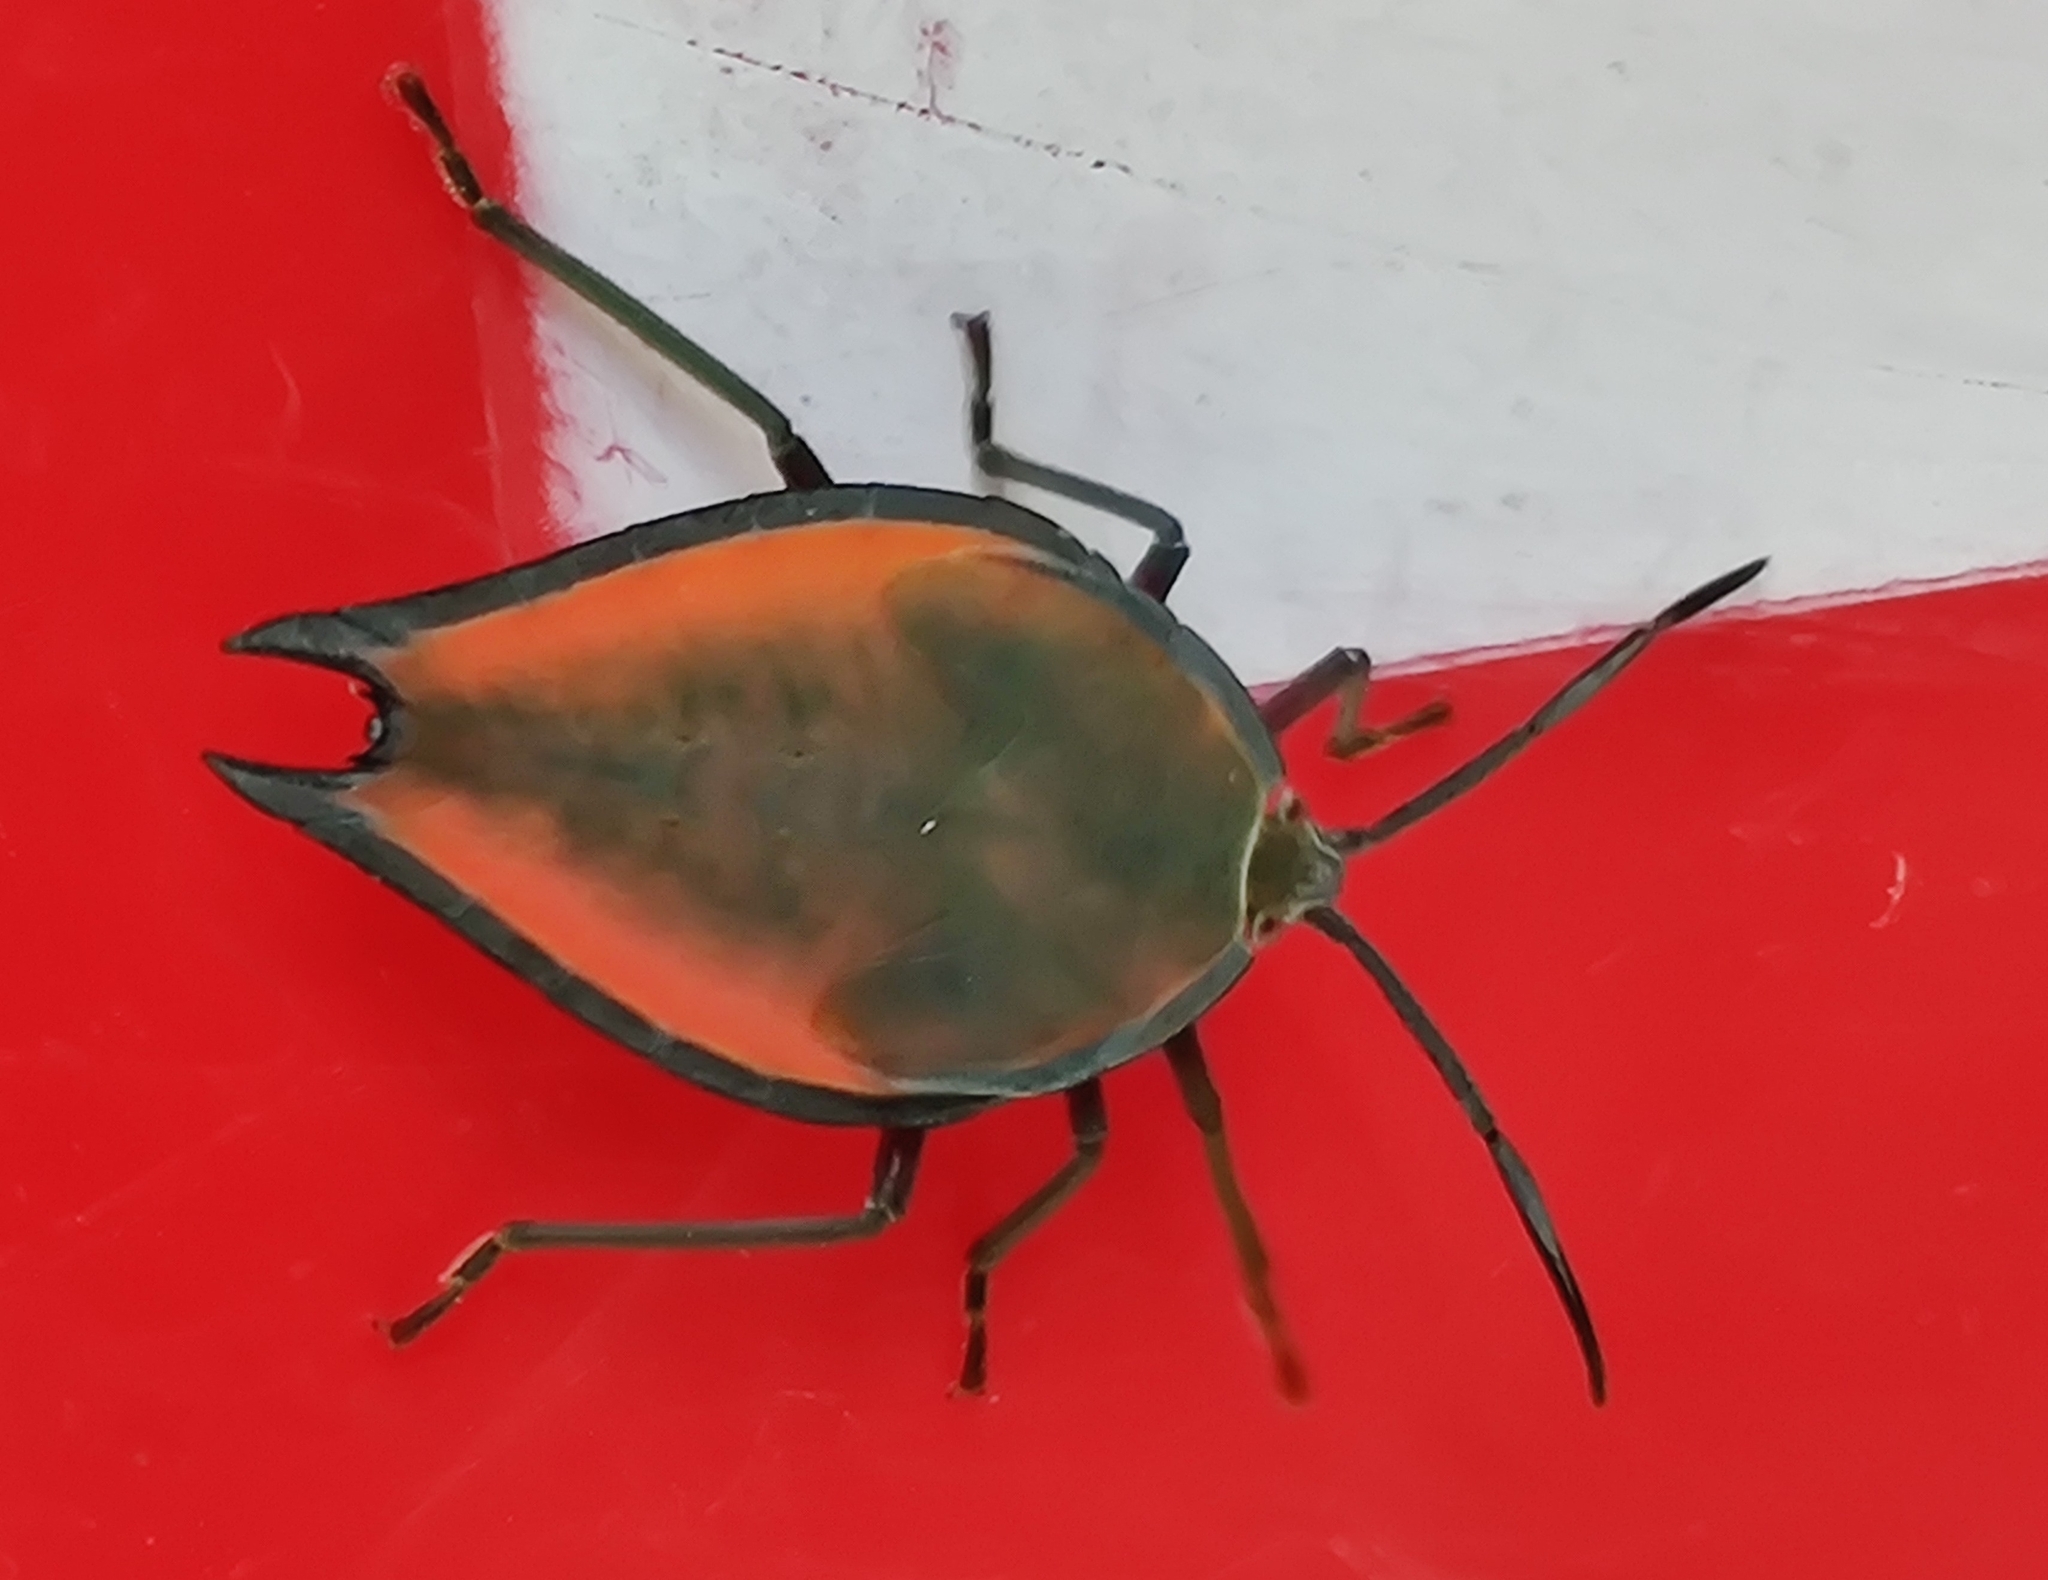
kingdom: Animalia
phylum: Arthropoda
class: Insecta
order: Hemiptera
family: Tessaratomidae
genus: Lyramorpha
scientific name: Lyramorpha rosea
